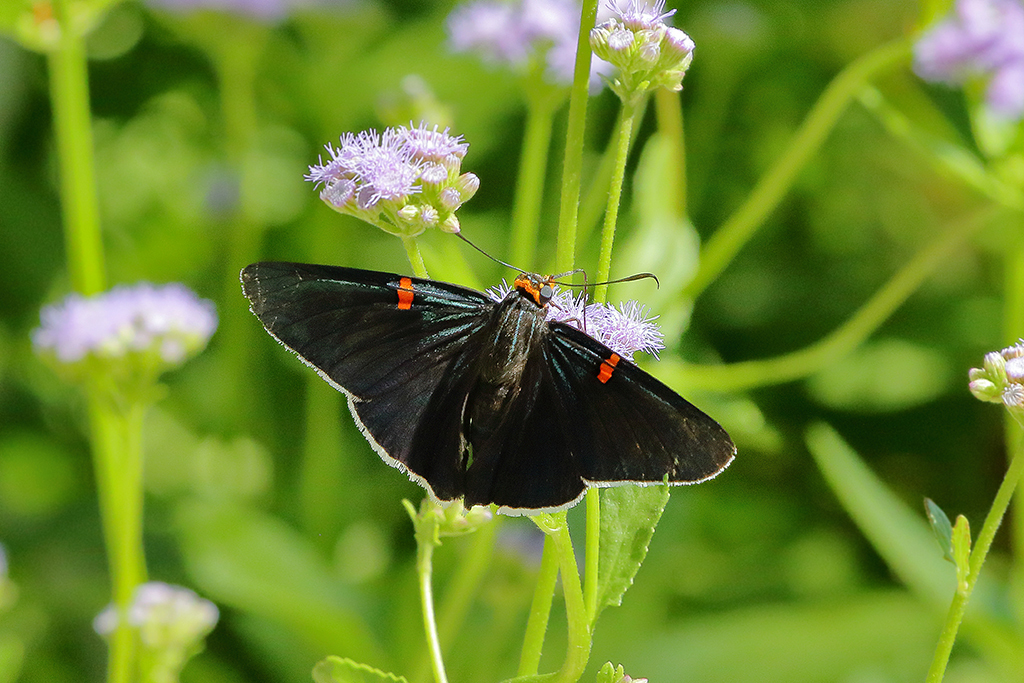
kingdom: Animalia
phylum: Arthropoda
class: Insecta
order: Lepidoptera
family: Hesperiidae
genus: Phocides
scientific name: Phocides lilea
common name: Guava skipper
